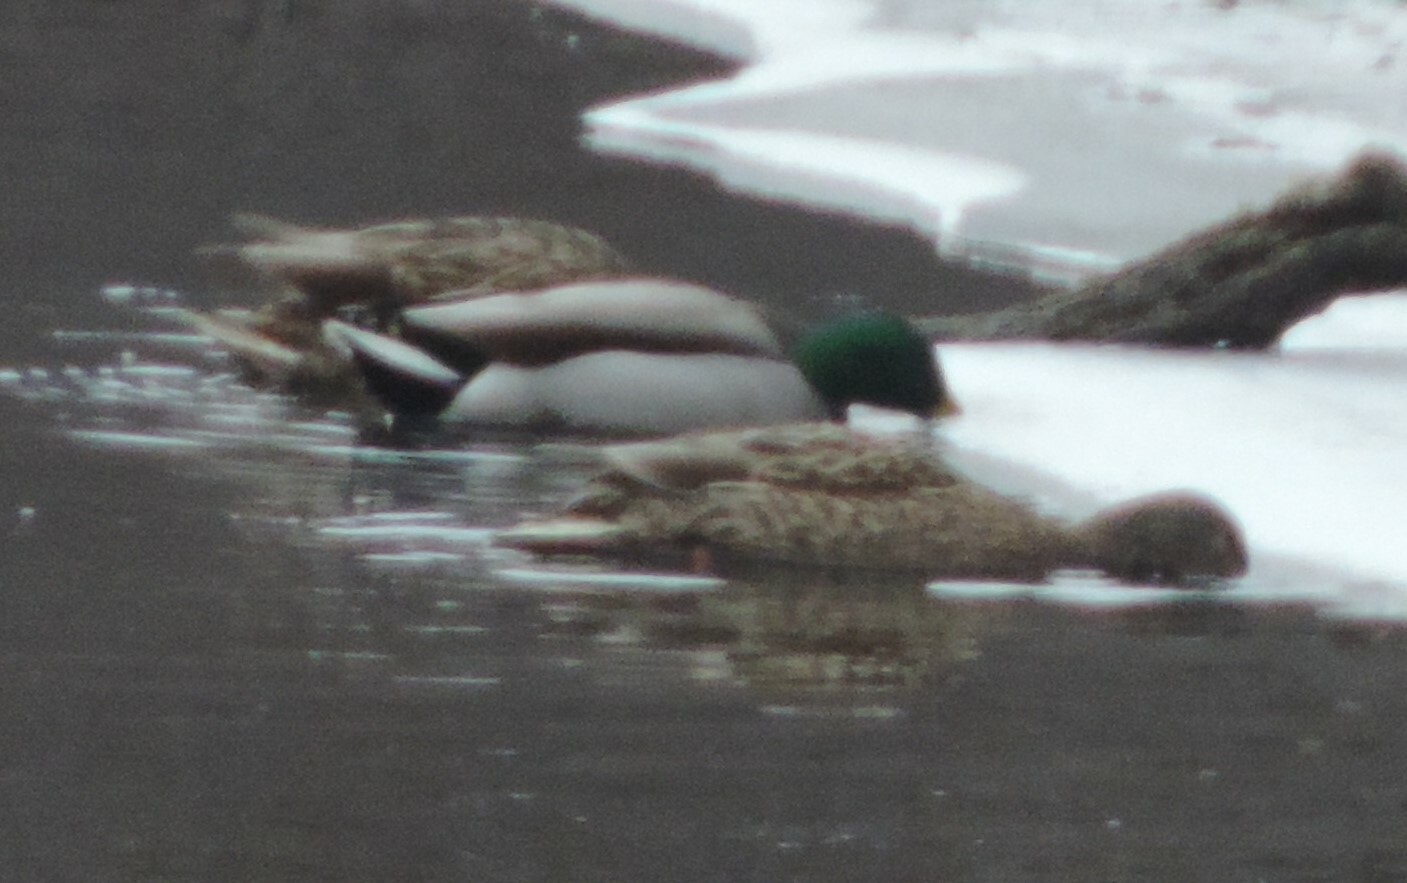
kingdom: Animalia
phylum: Chordata
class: Aves
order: Anseriformes
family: Anatidae
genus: Anas
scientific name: Anas platyrhynchos
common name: Mallard
